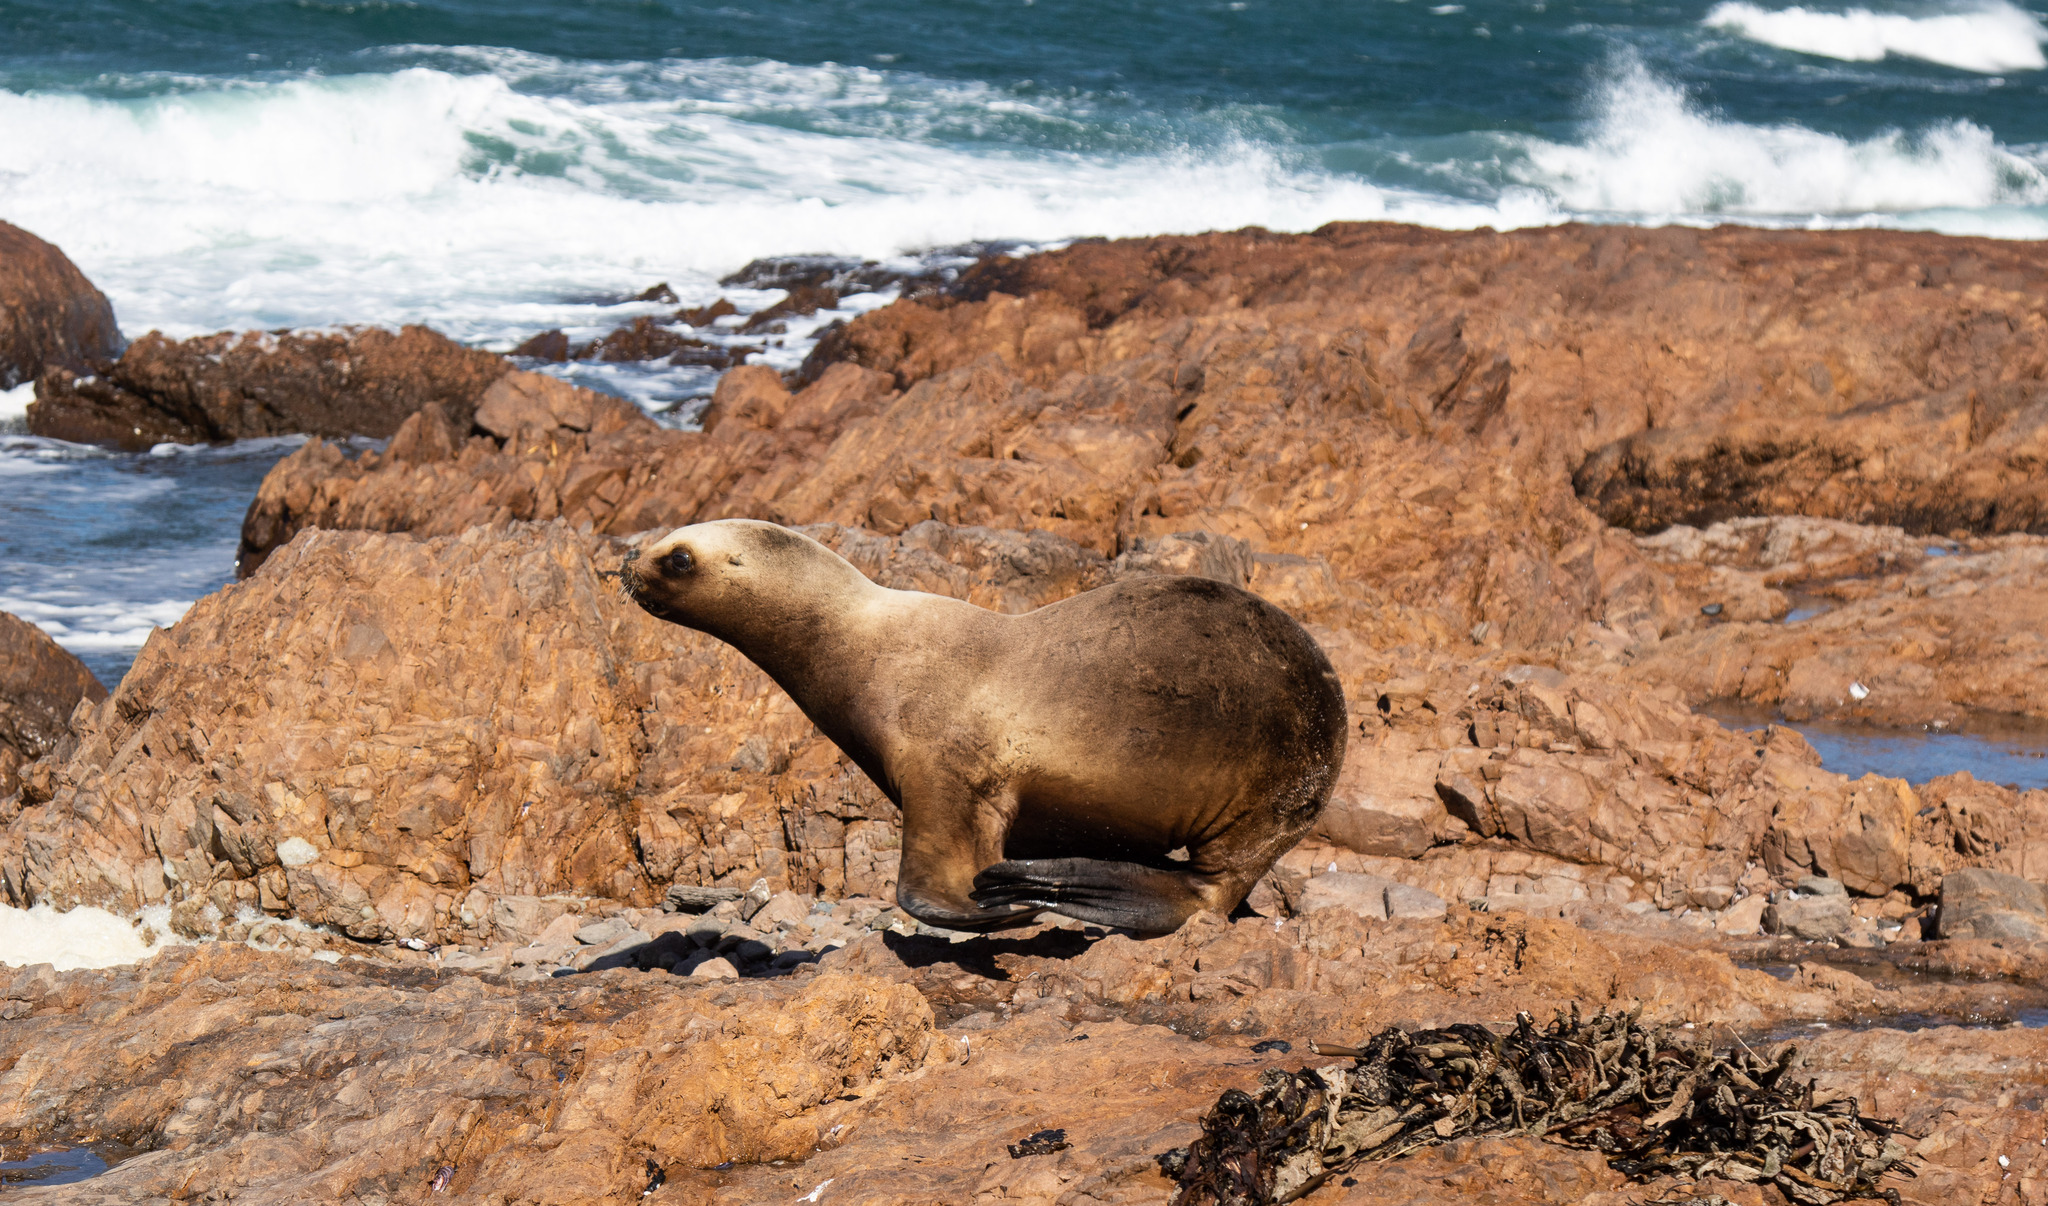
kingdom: Animalia
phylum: Chordata
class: Mammalia
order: Carnivora
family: Otariidae
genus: Otaria
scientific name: Otaria byronia
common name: South american sea lion
